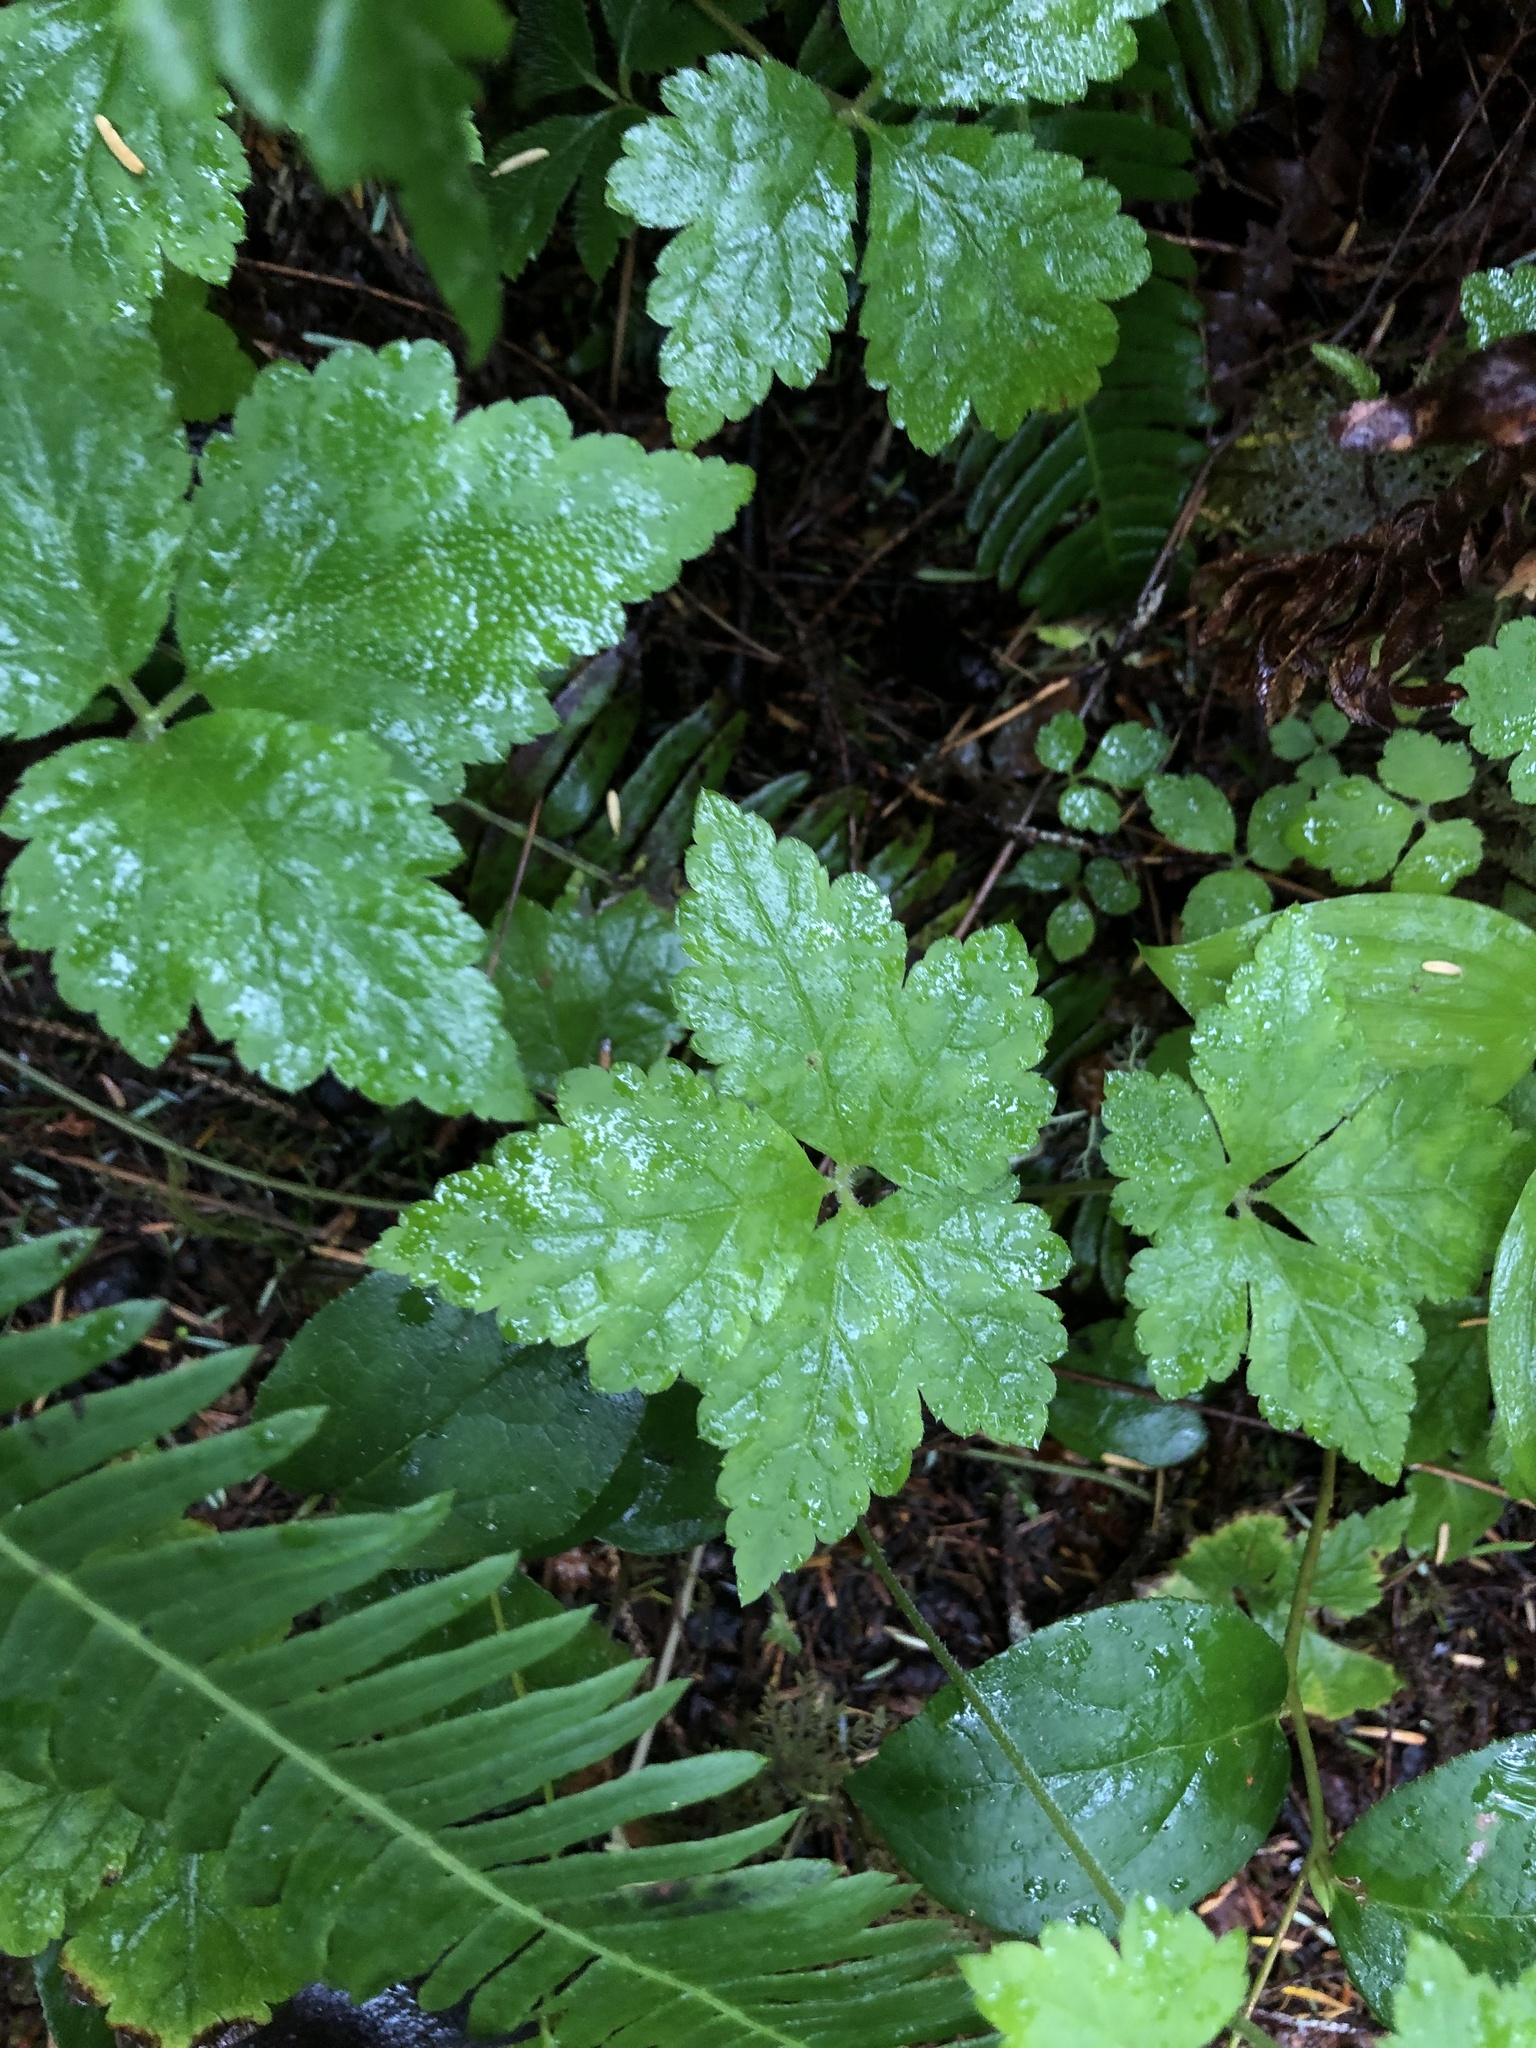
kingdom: Plantae
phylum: Tracheophyta
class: Magnoliopsida
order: Saxifragales
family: Saxifragaceae
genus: Tiarella
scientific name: Tiarella trifoliata
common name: Sugar-scoop
